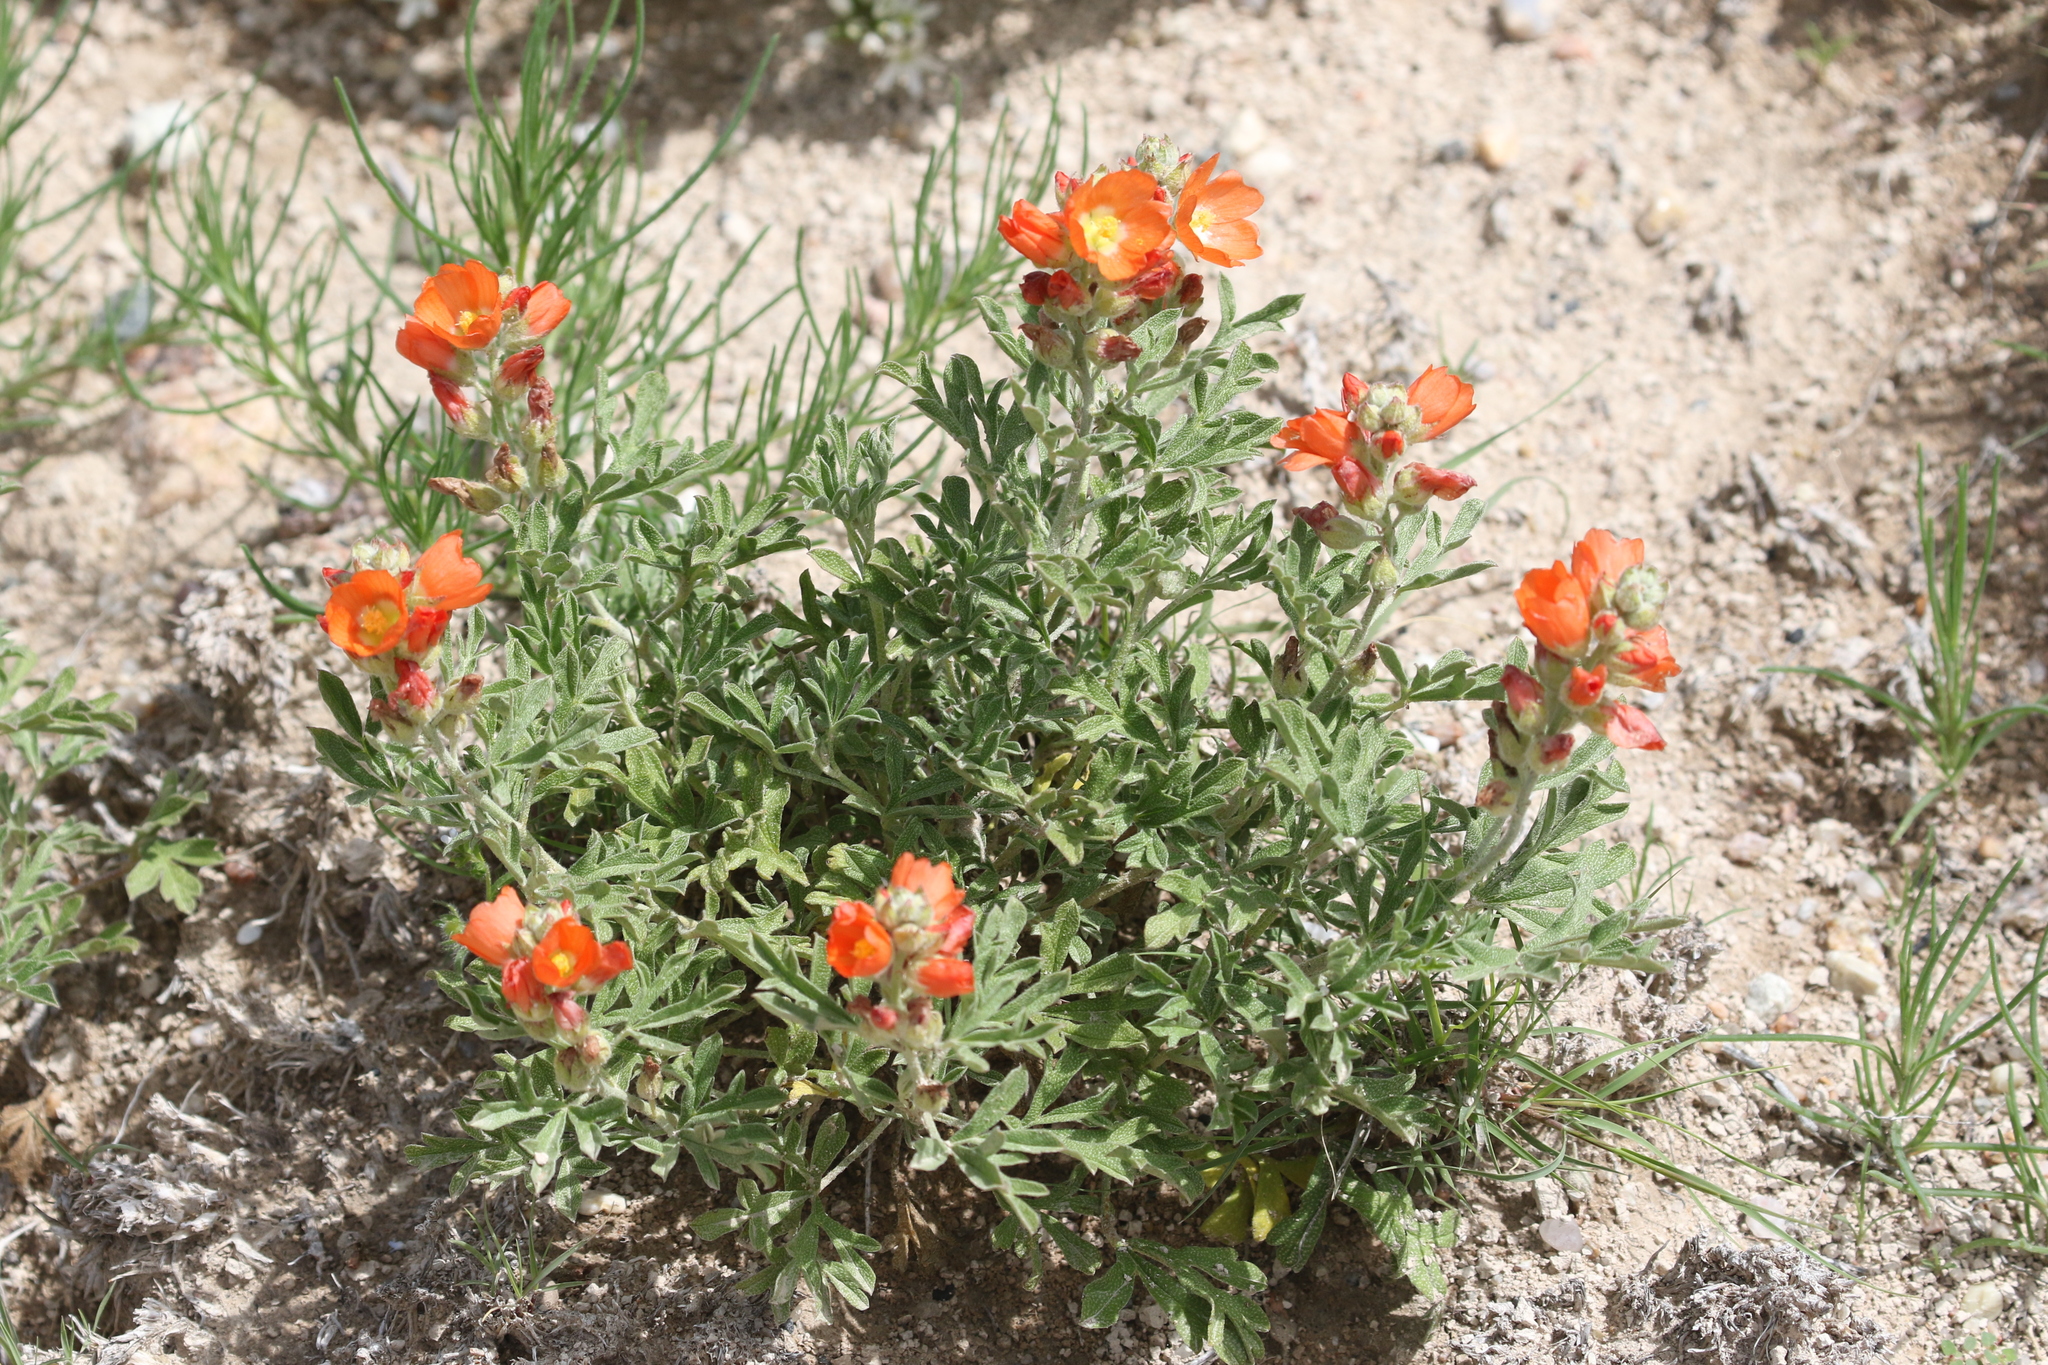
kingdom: Plantae
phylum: Tracheophyta
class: Magnoliopsida
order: Malvales
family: Malvaceae
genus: Sphaeralcea
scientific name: Sphaeralcea coccinea
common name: Moss-rose
